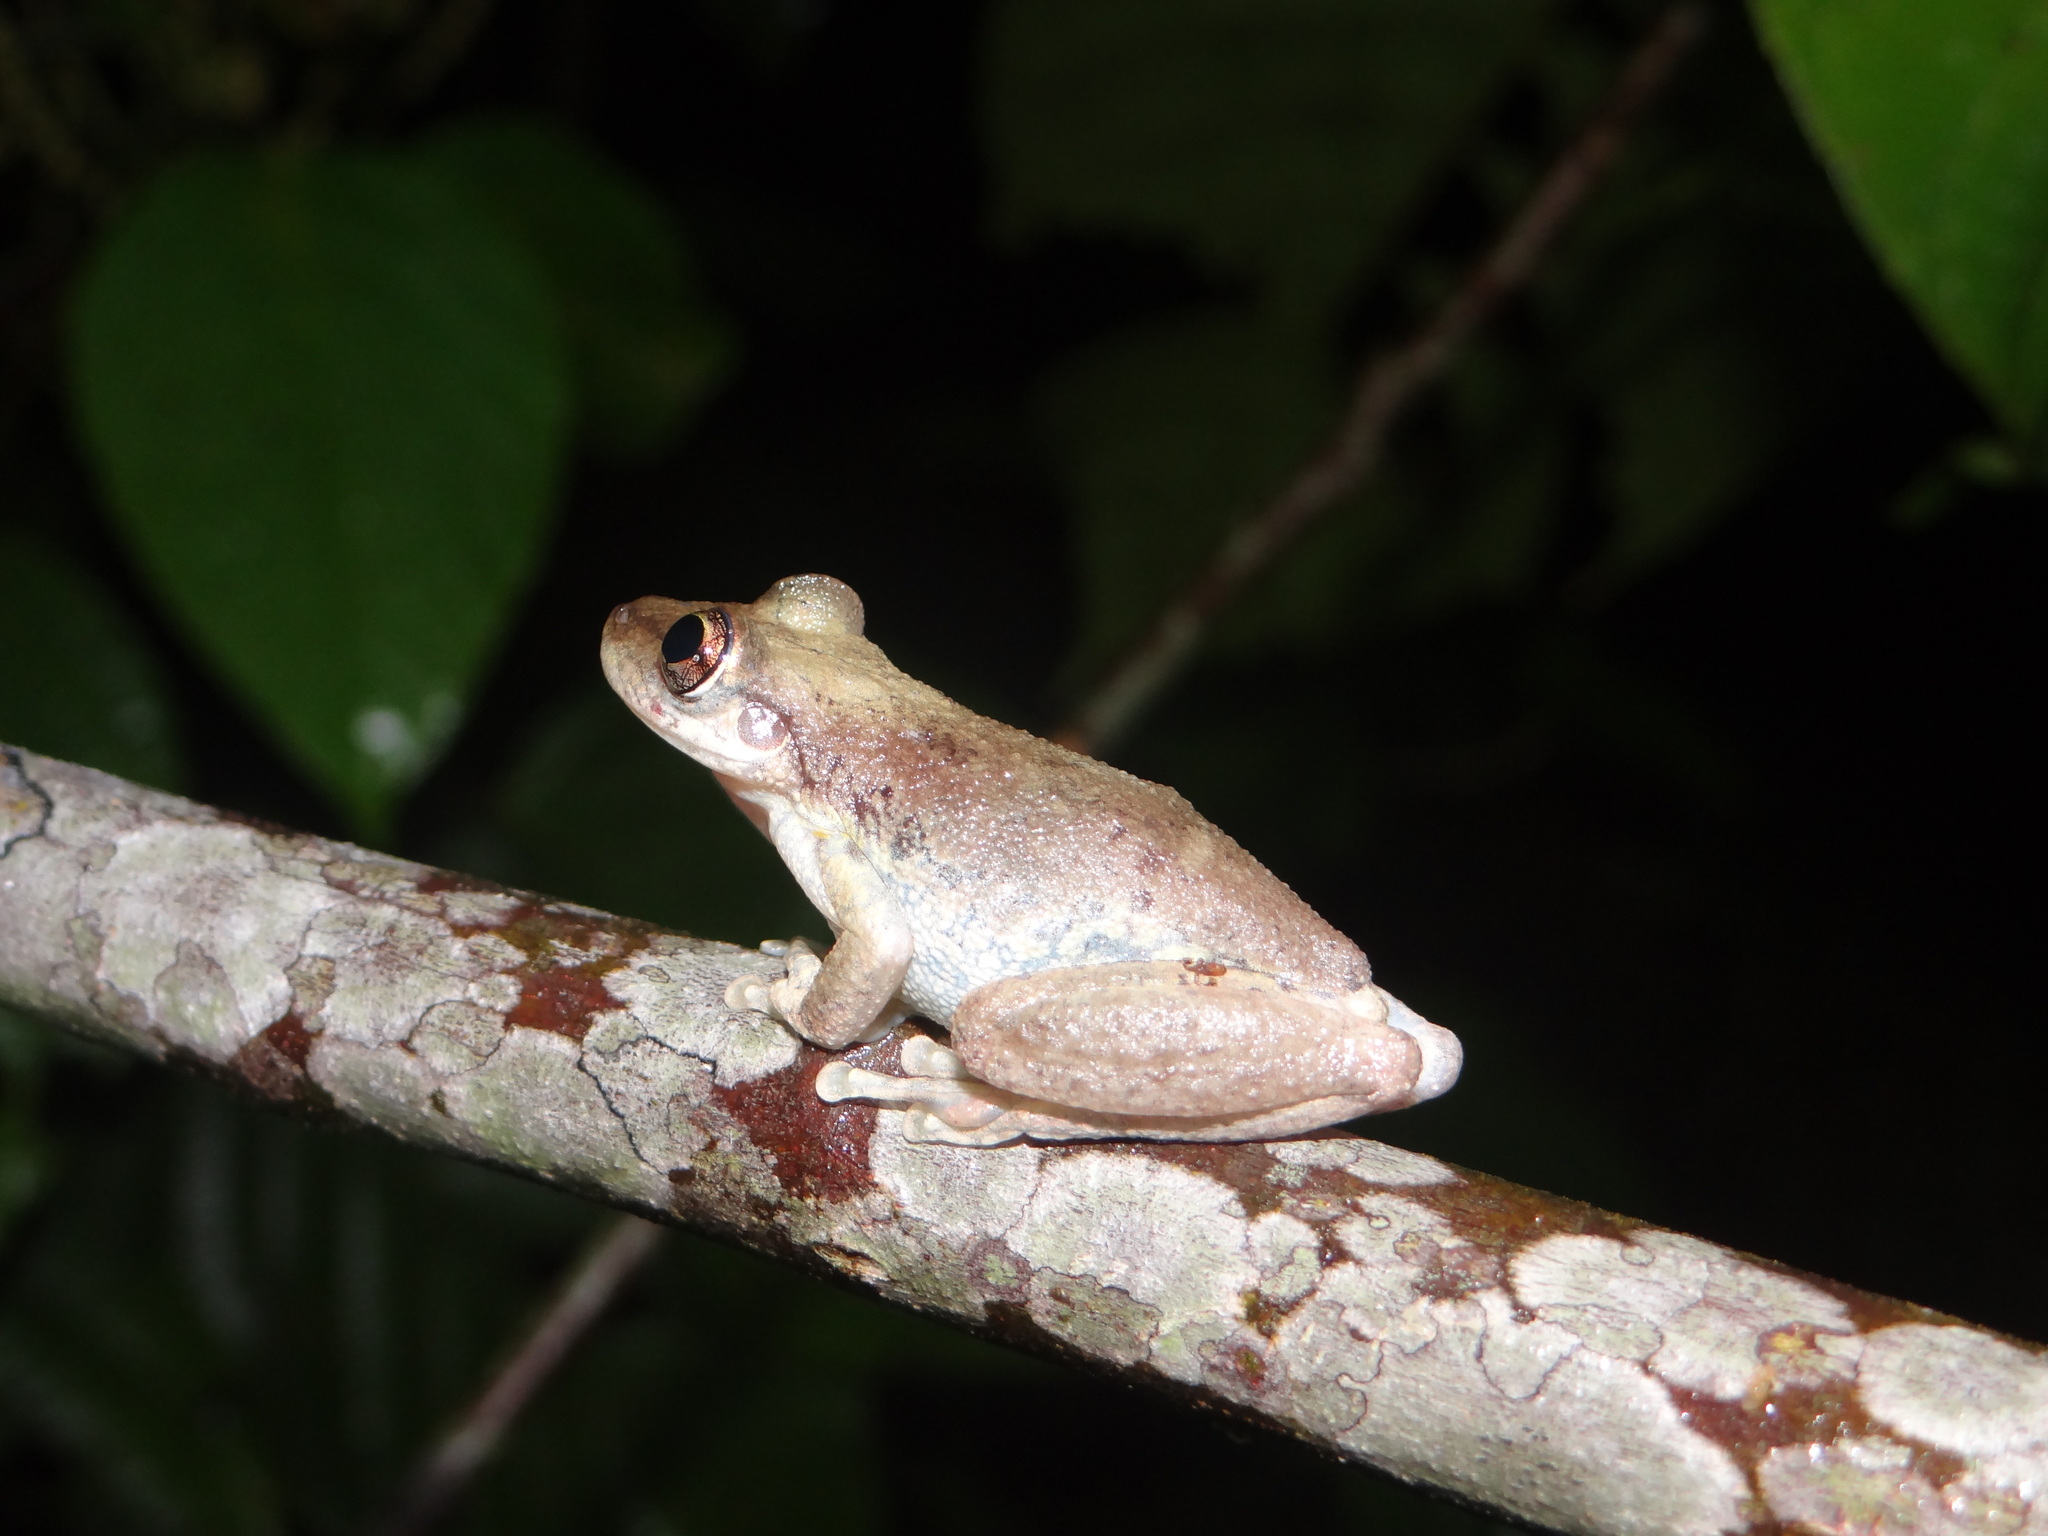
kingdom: Animalia
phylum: Chordata
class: Amphibia
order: Anura
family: Hylidae
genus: Scinax
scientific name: Scinax ruber
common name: Red snouted treefrog
